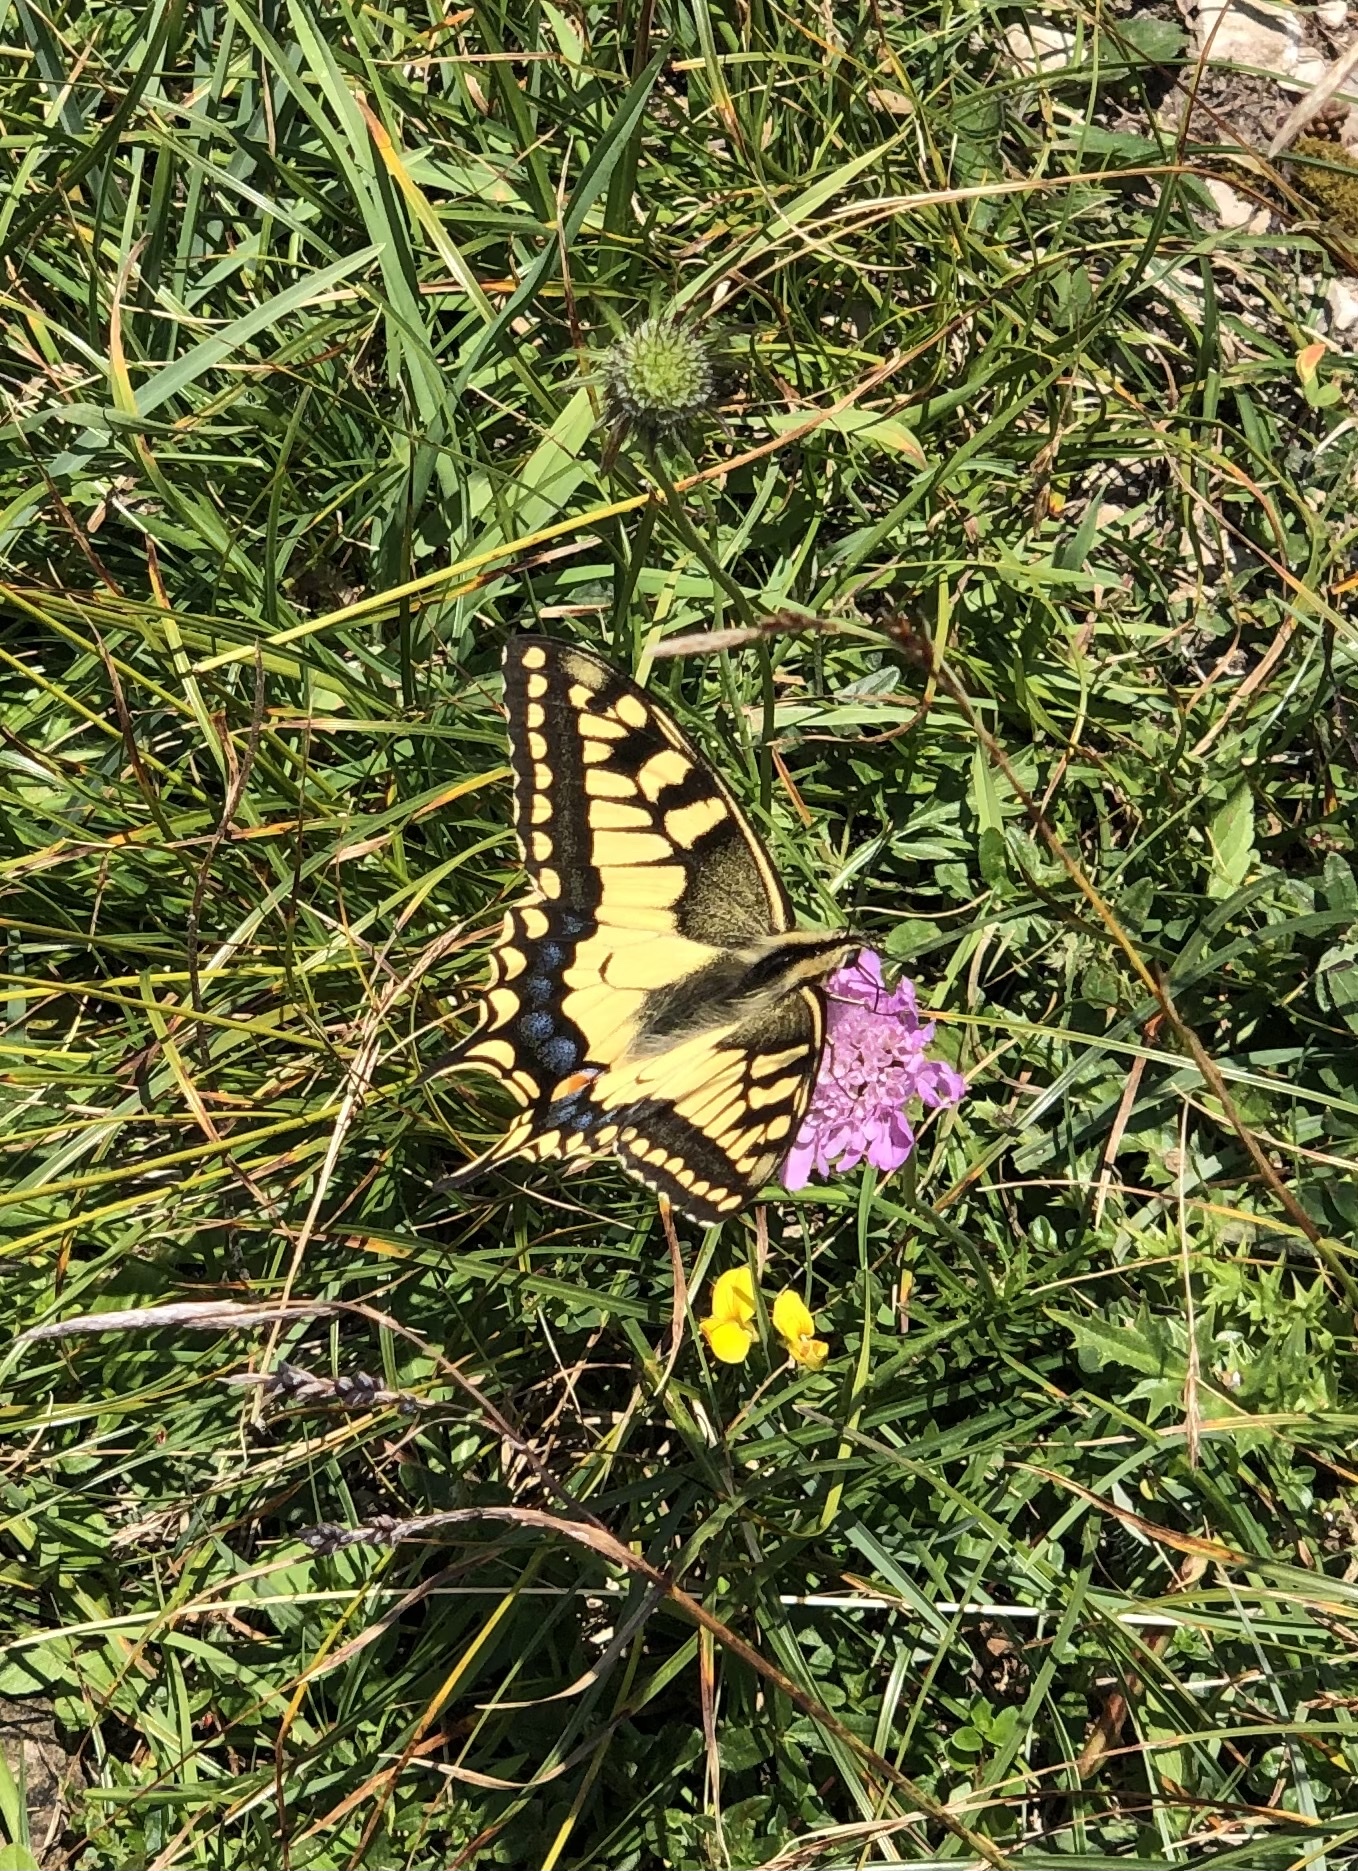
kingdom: Animalia
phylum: Arthropoda
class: Insecta
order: Lepidoptera
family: Papilionidae
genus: Papilio
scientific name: Papilio machaon
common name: Swallowtail
